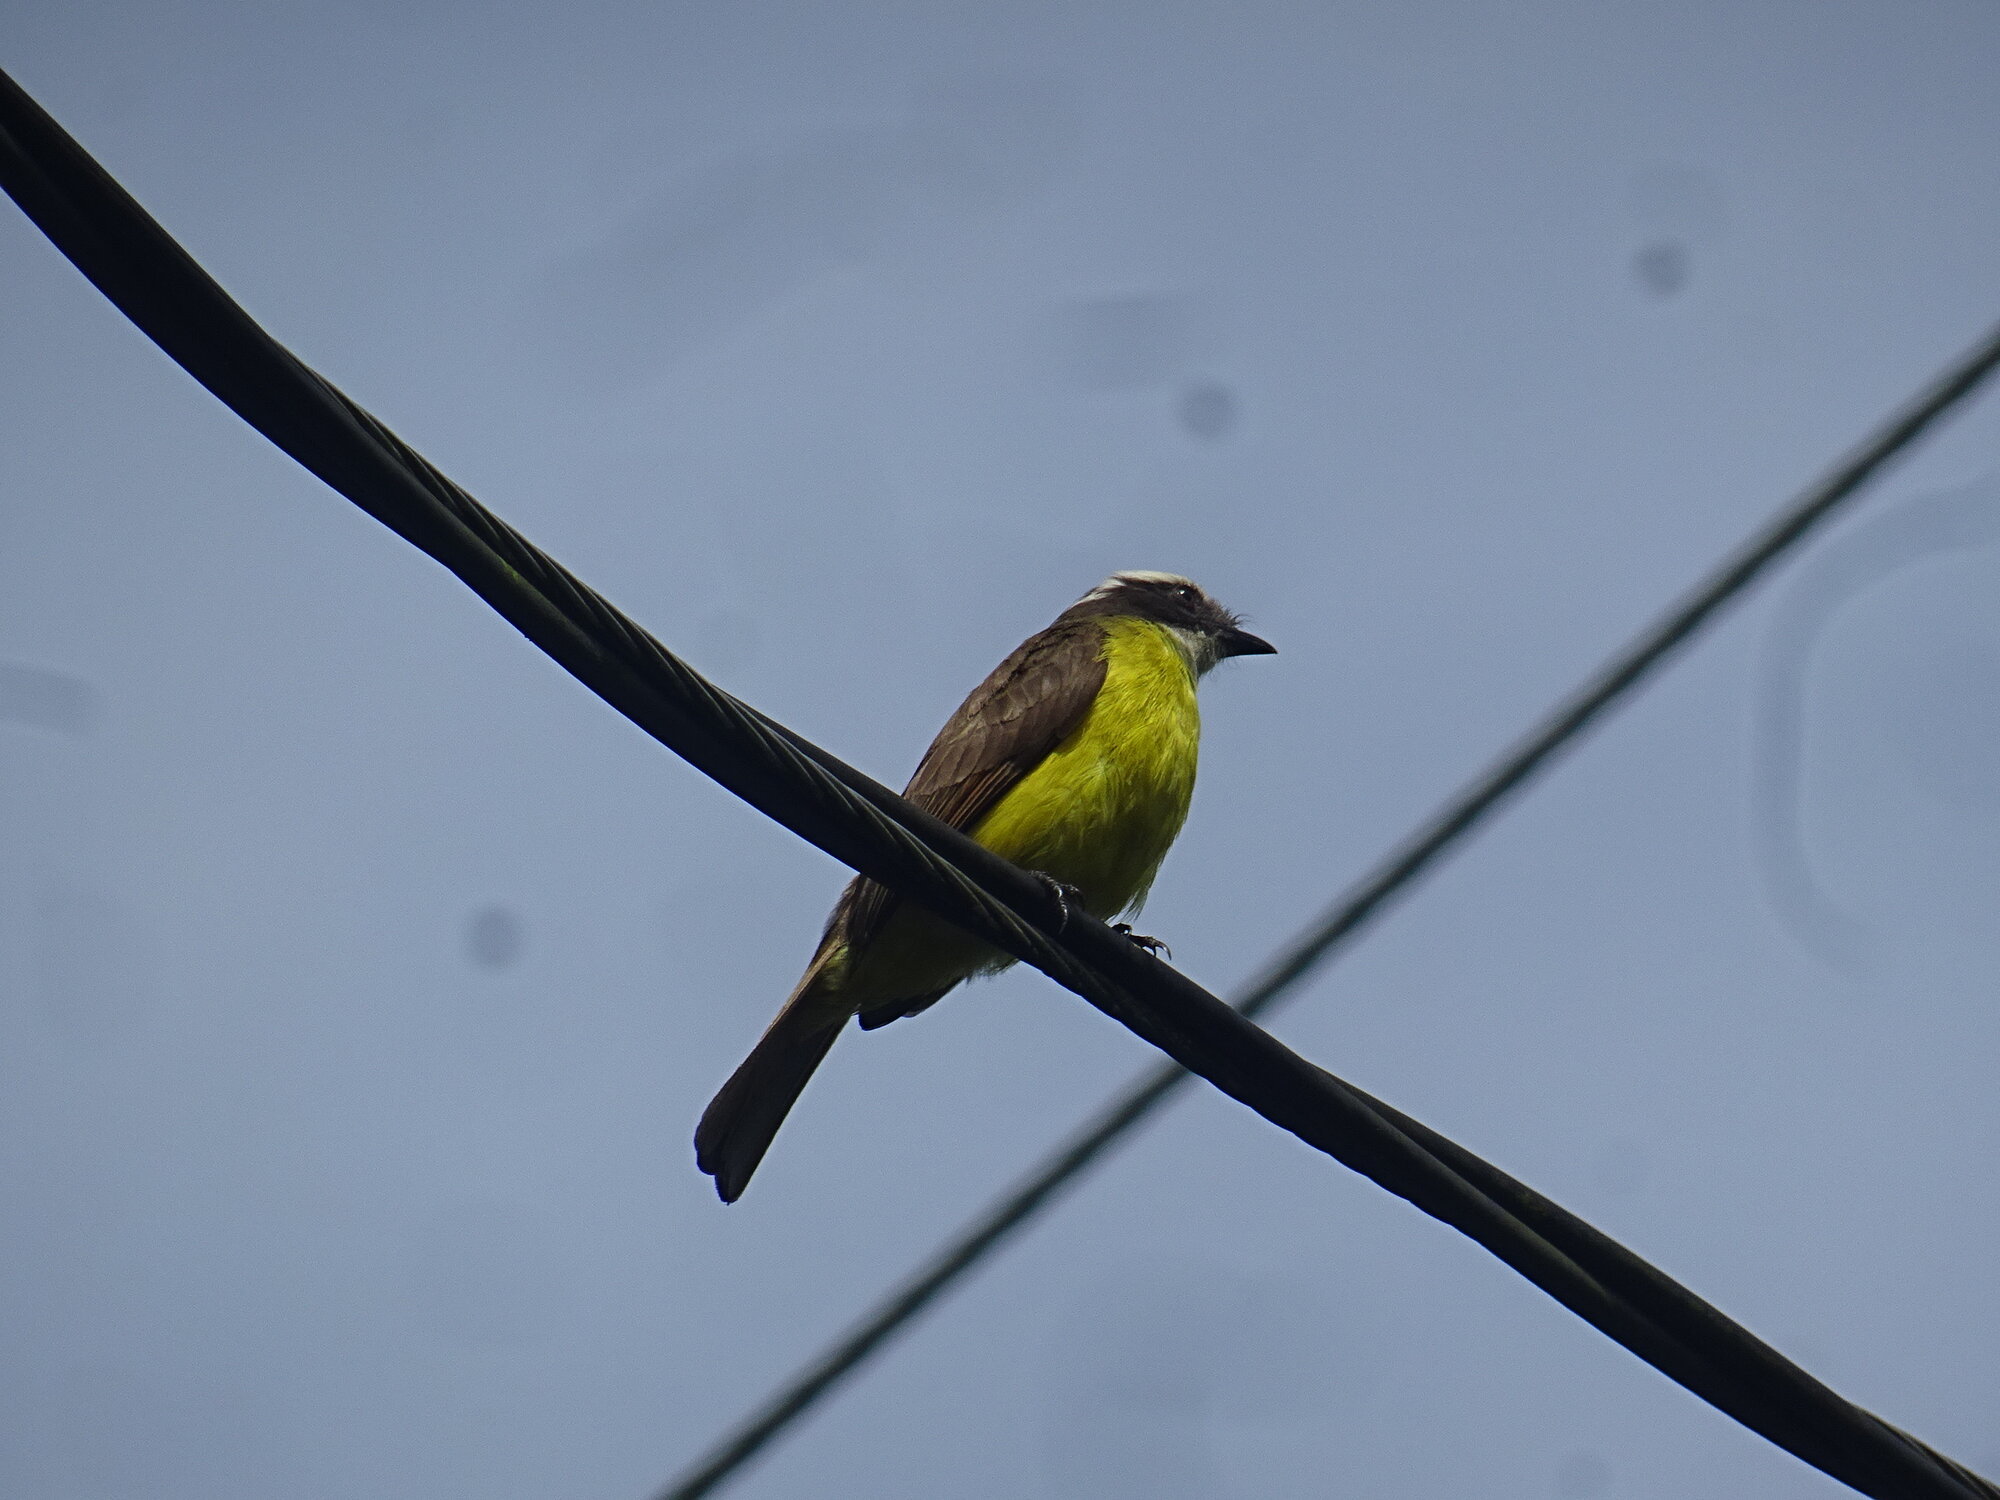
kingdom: Animalia
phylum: Chordata
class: Aves
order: Passeriformes
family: Tyrannidae
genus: Myiozetetes
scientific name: Myiozetetes cayanensis
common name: Rusty-margined flycatcher
